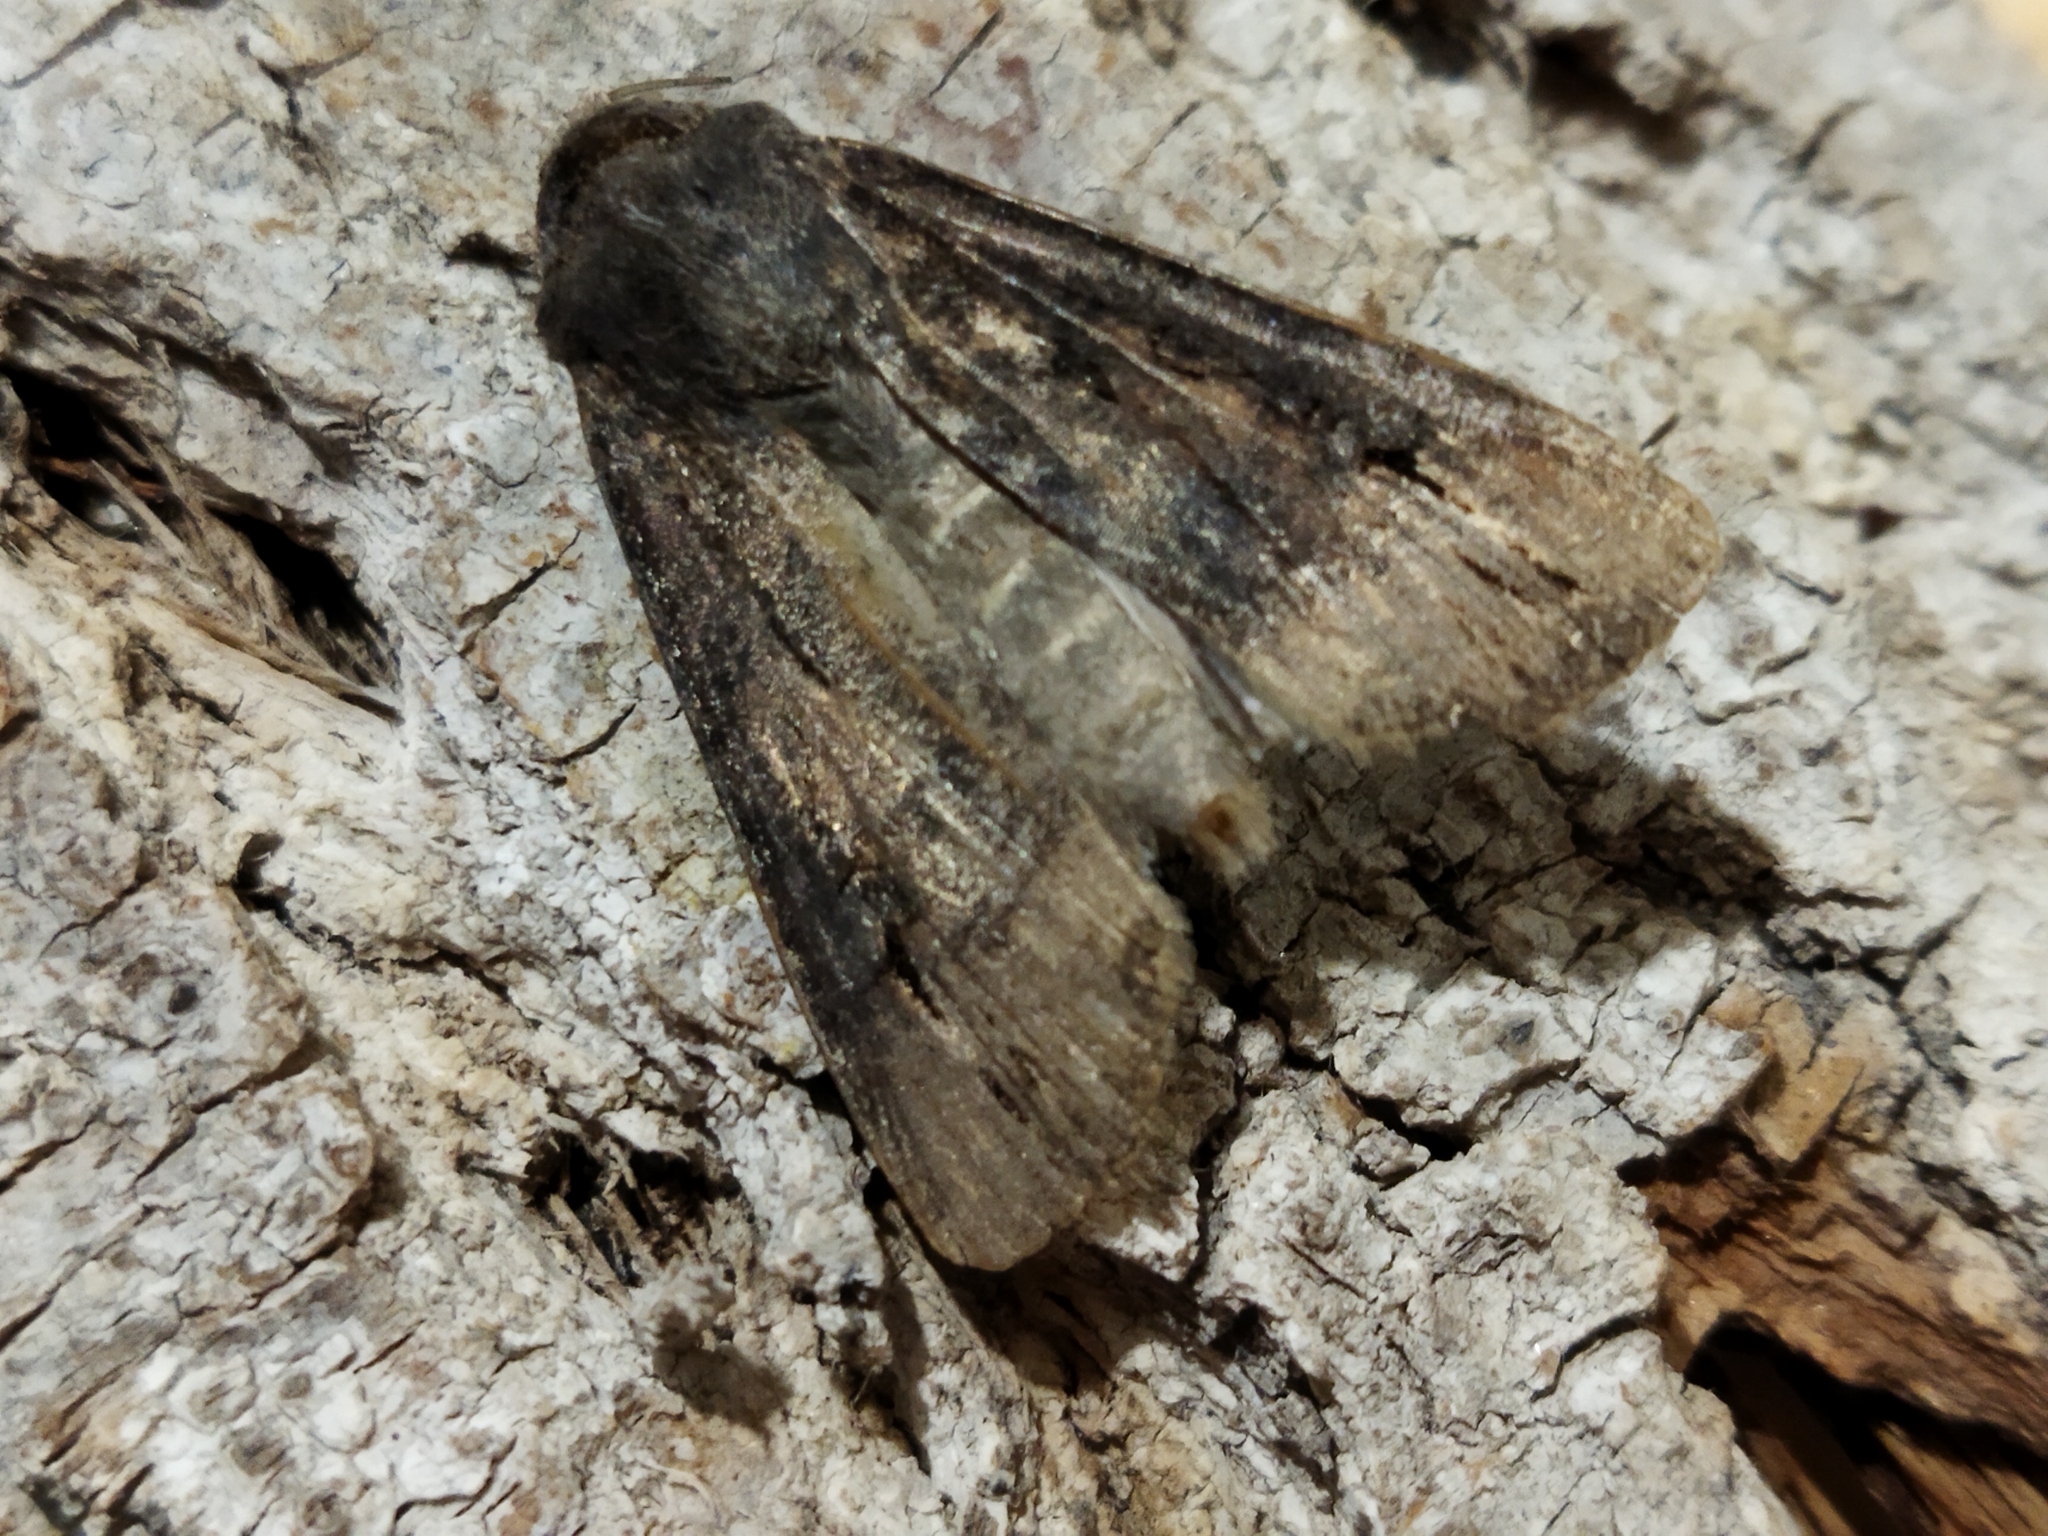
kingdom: Animalia
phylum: Arthropoda
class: Insecta
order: Lepidoptera
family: Noctuidae
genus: Agrotis
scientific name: Agrotis ipsilon
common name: Dark sword-grass
